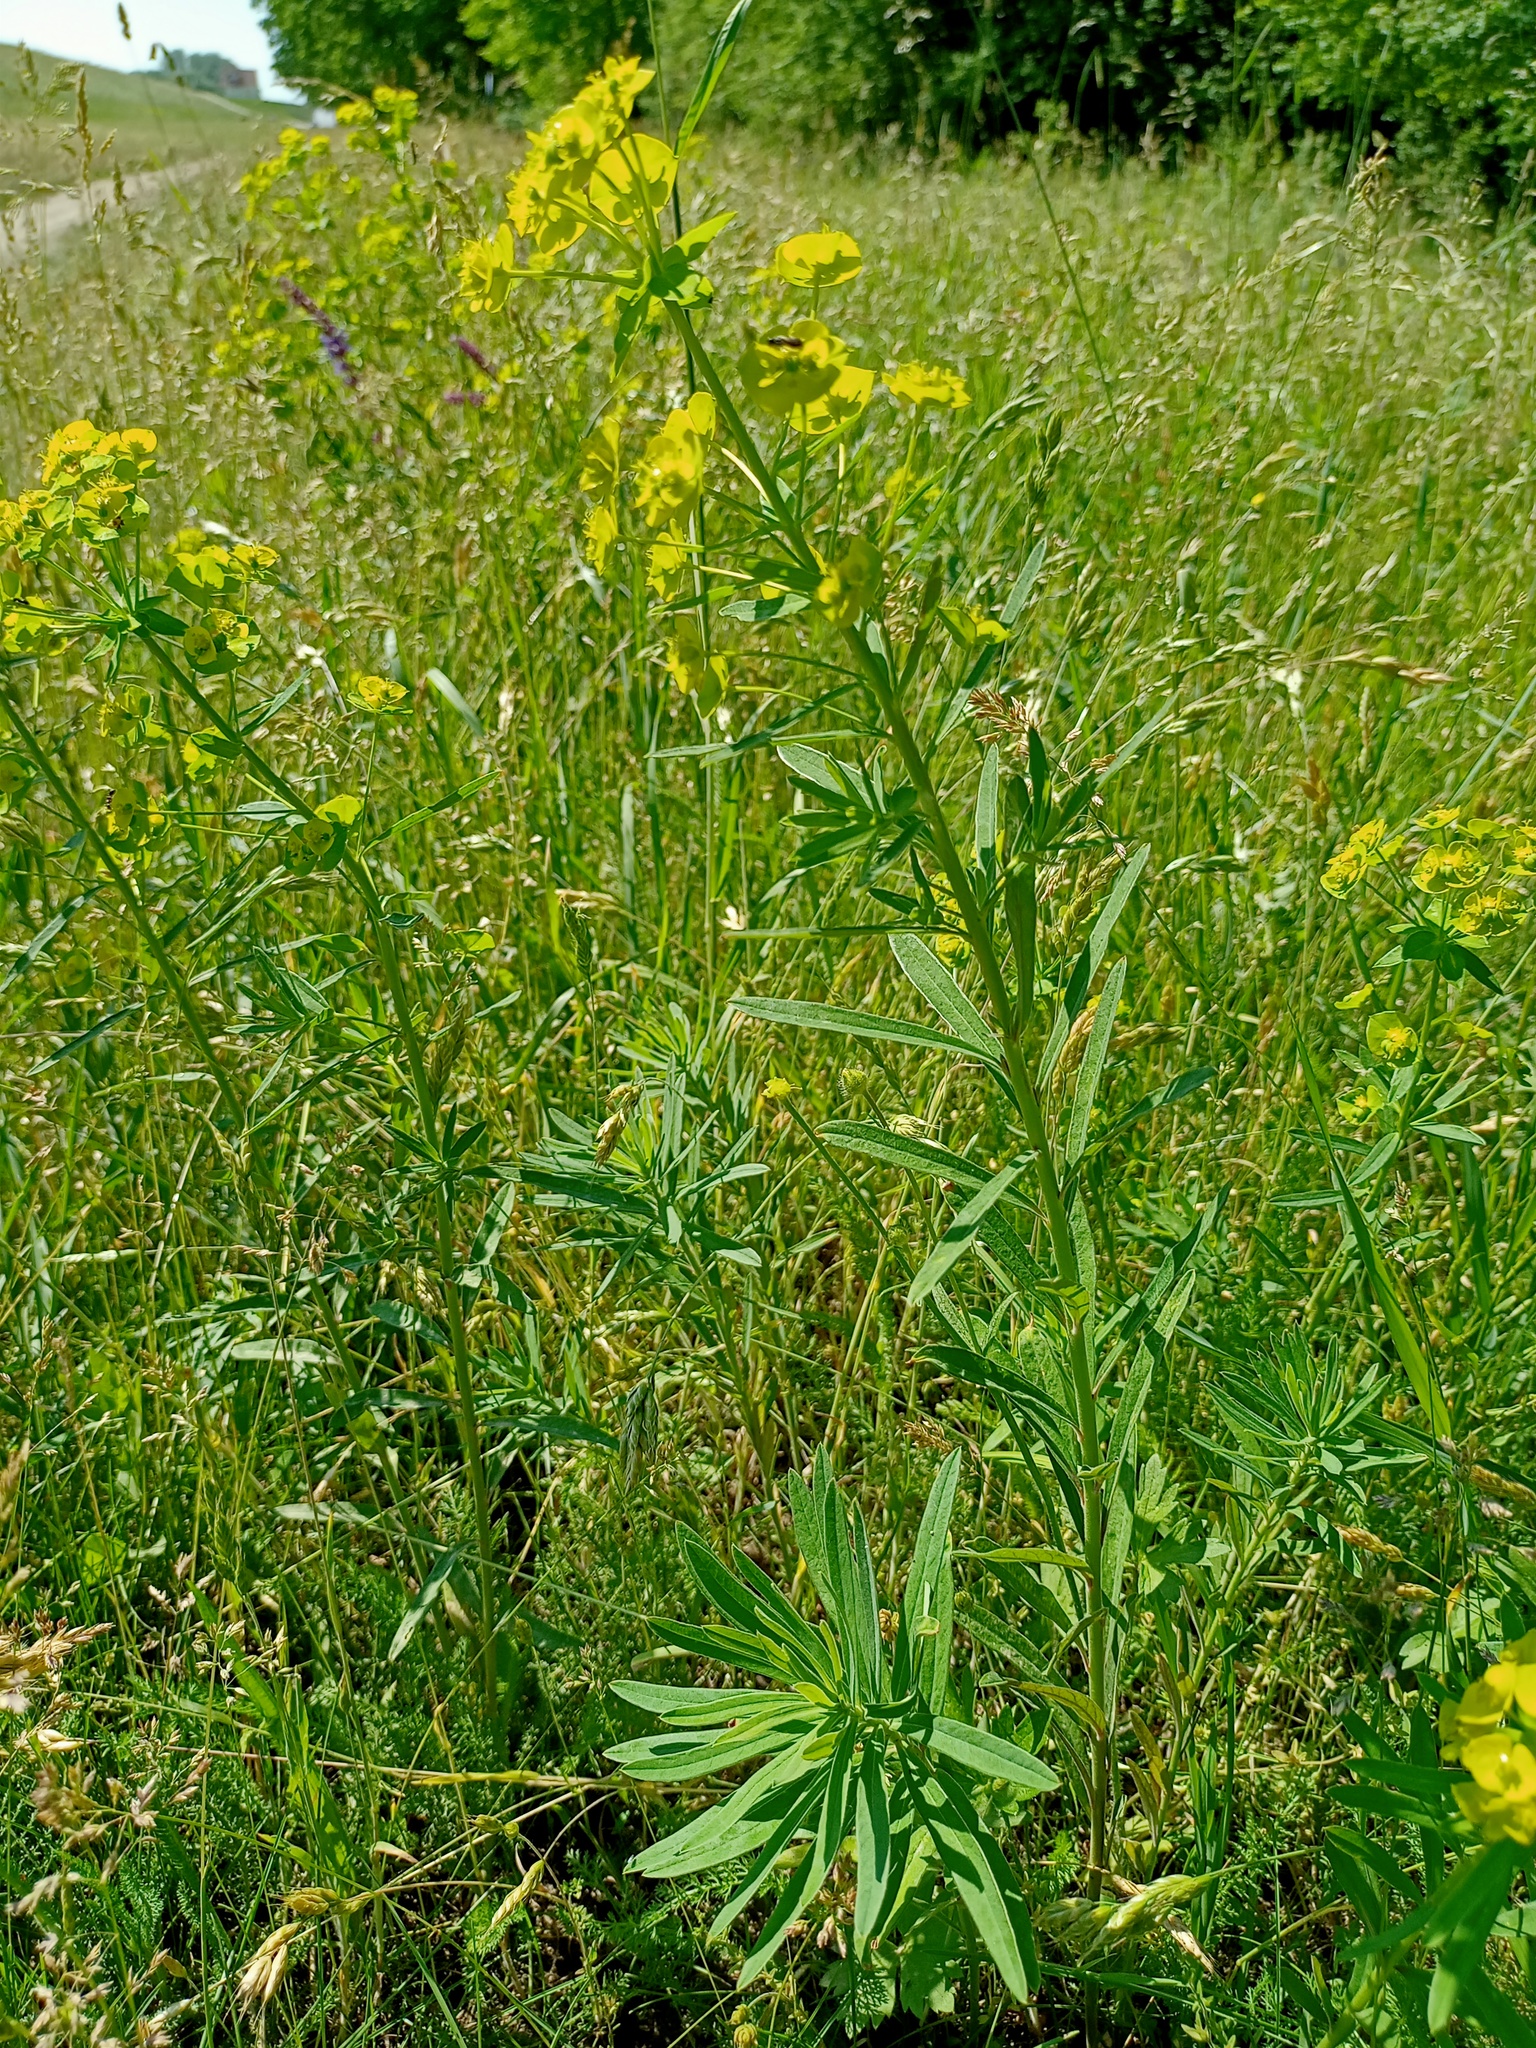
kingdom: Plantae
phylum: Tracheophyta
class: Magnoliopsida
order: Malpighiales
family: Euphorbiaceae
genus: Euphorbia
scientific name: Euphorbia esula
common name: Leafy spurge
